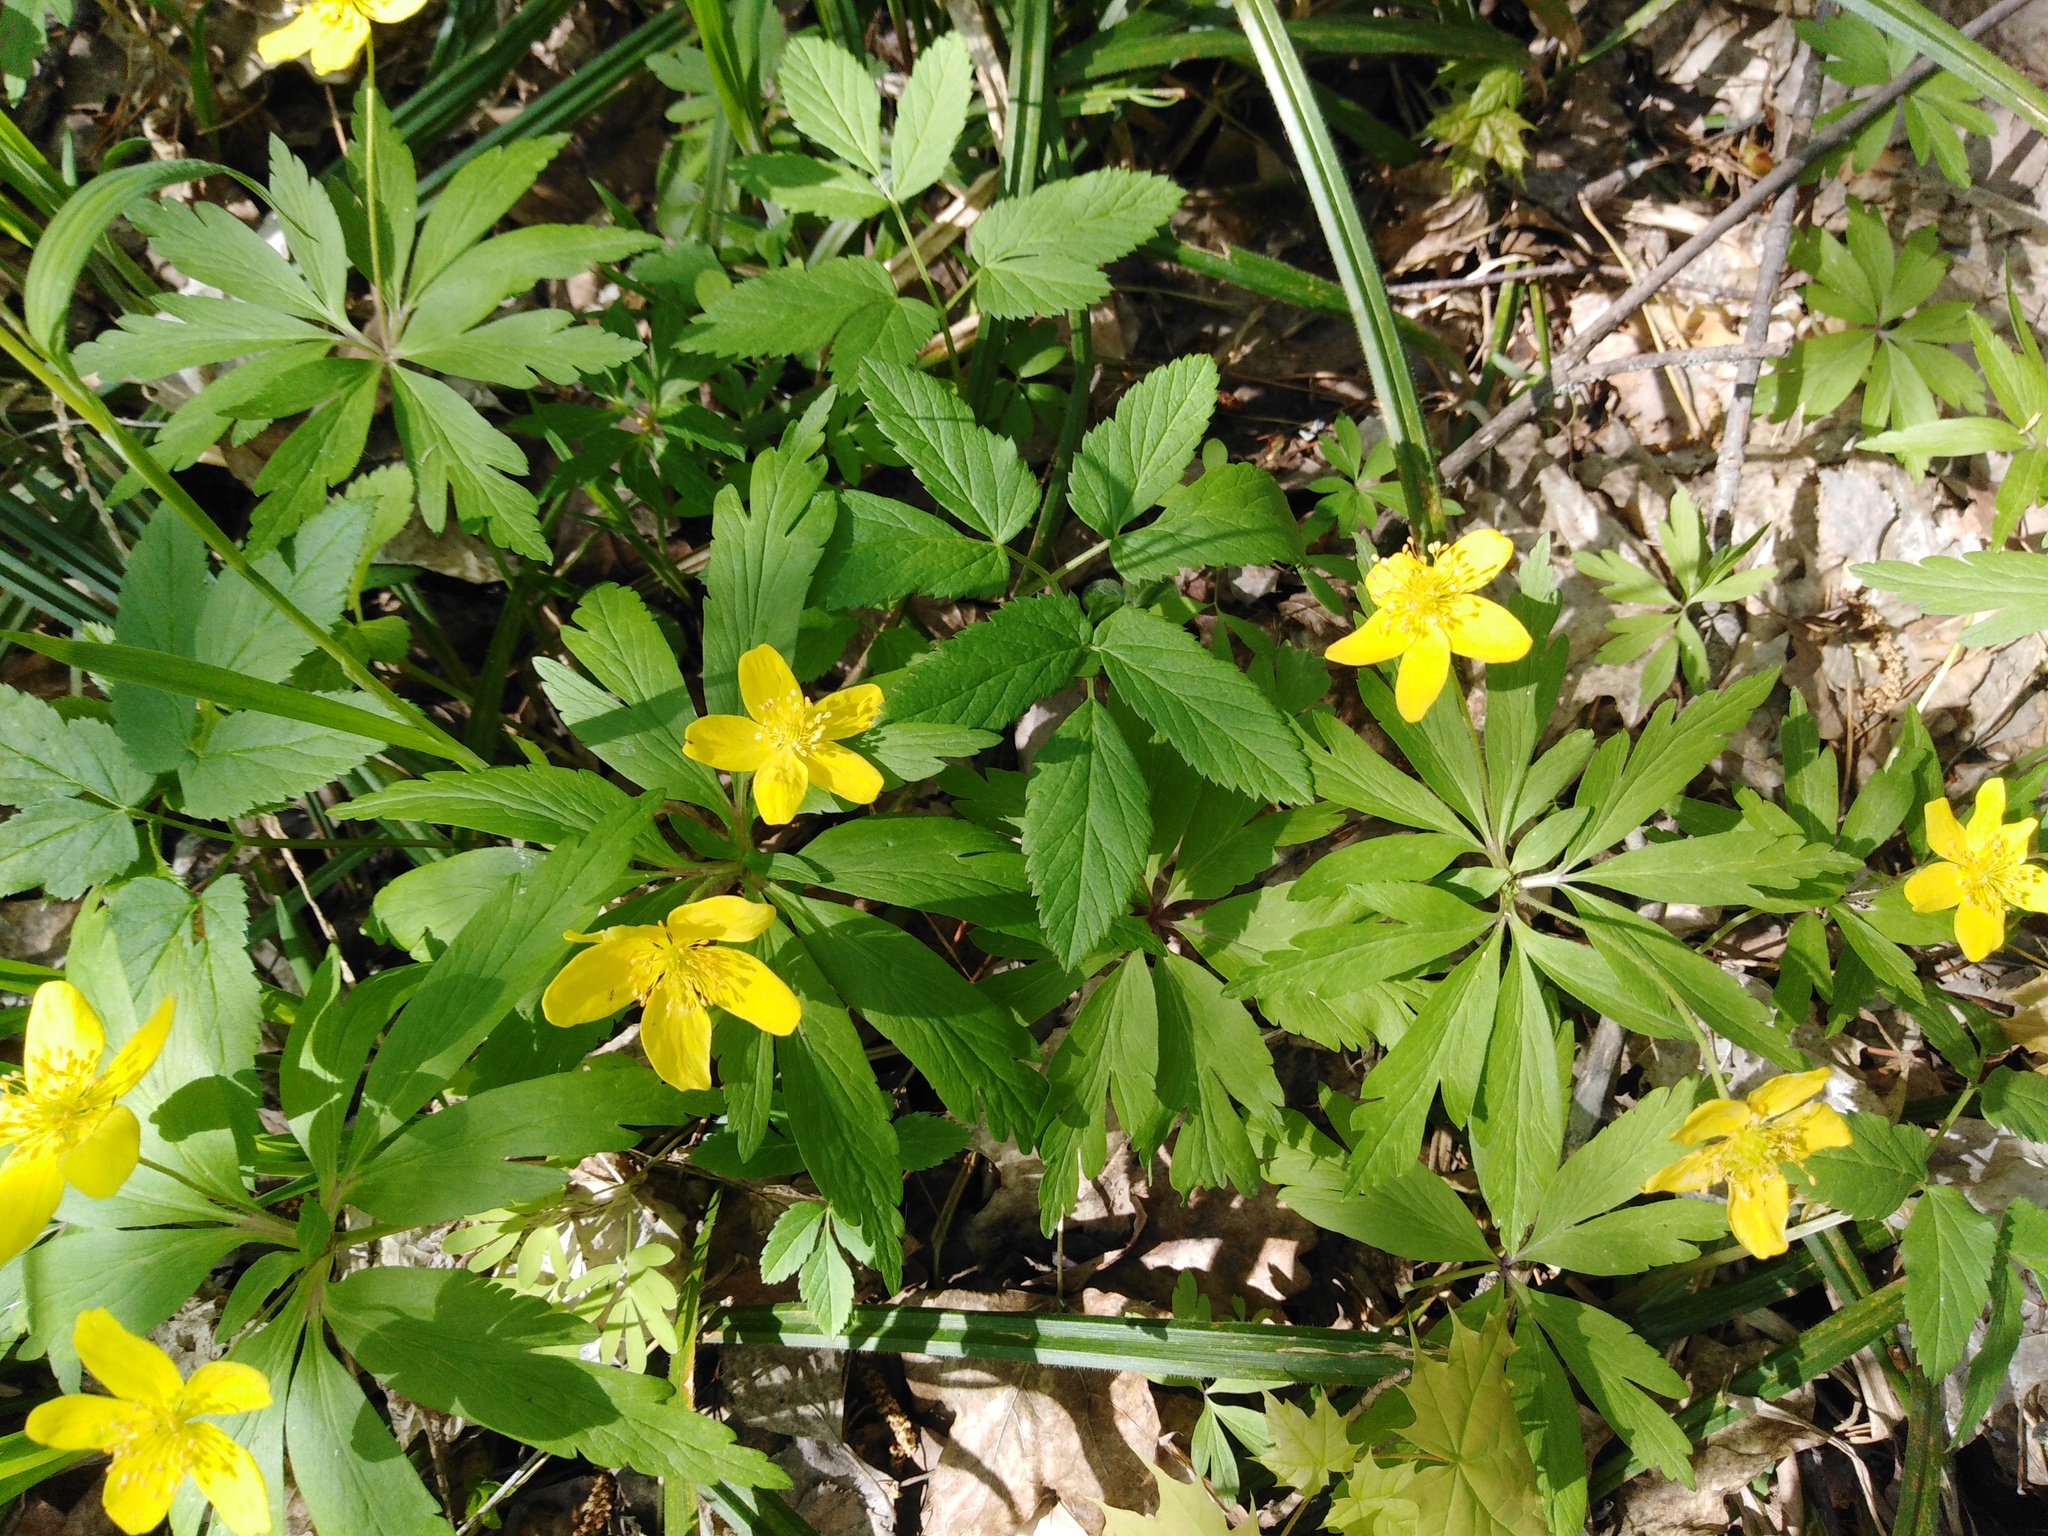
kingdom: Plantae
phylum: Tracheophyta
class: Magnoliopsida
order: Ranunculales
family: Ranunculaceae
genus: Anemone
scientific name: Anemone ranunculoides
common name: Yellow anemone
